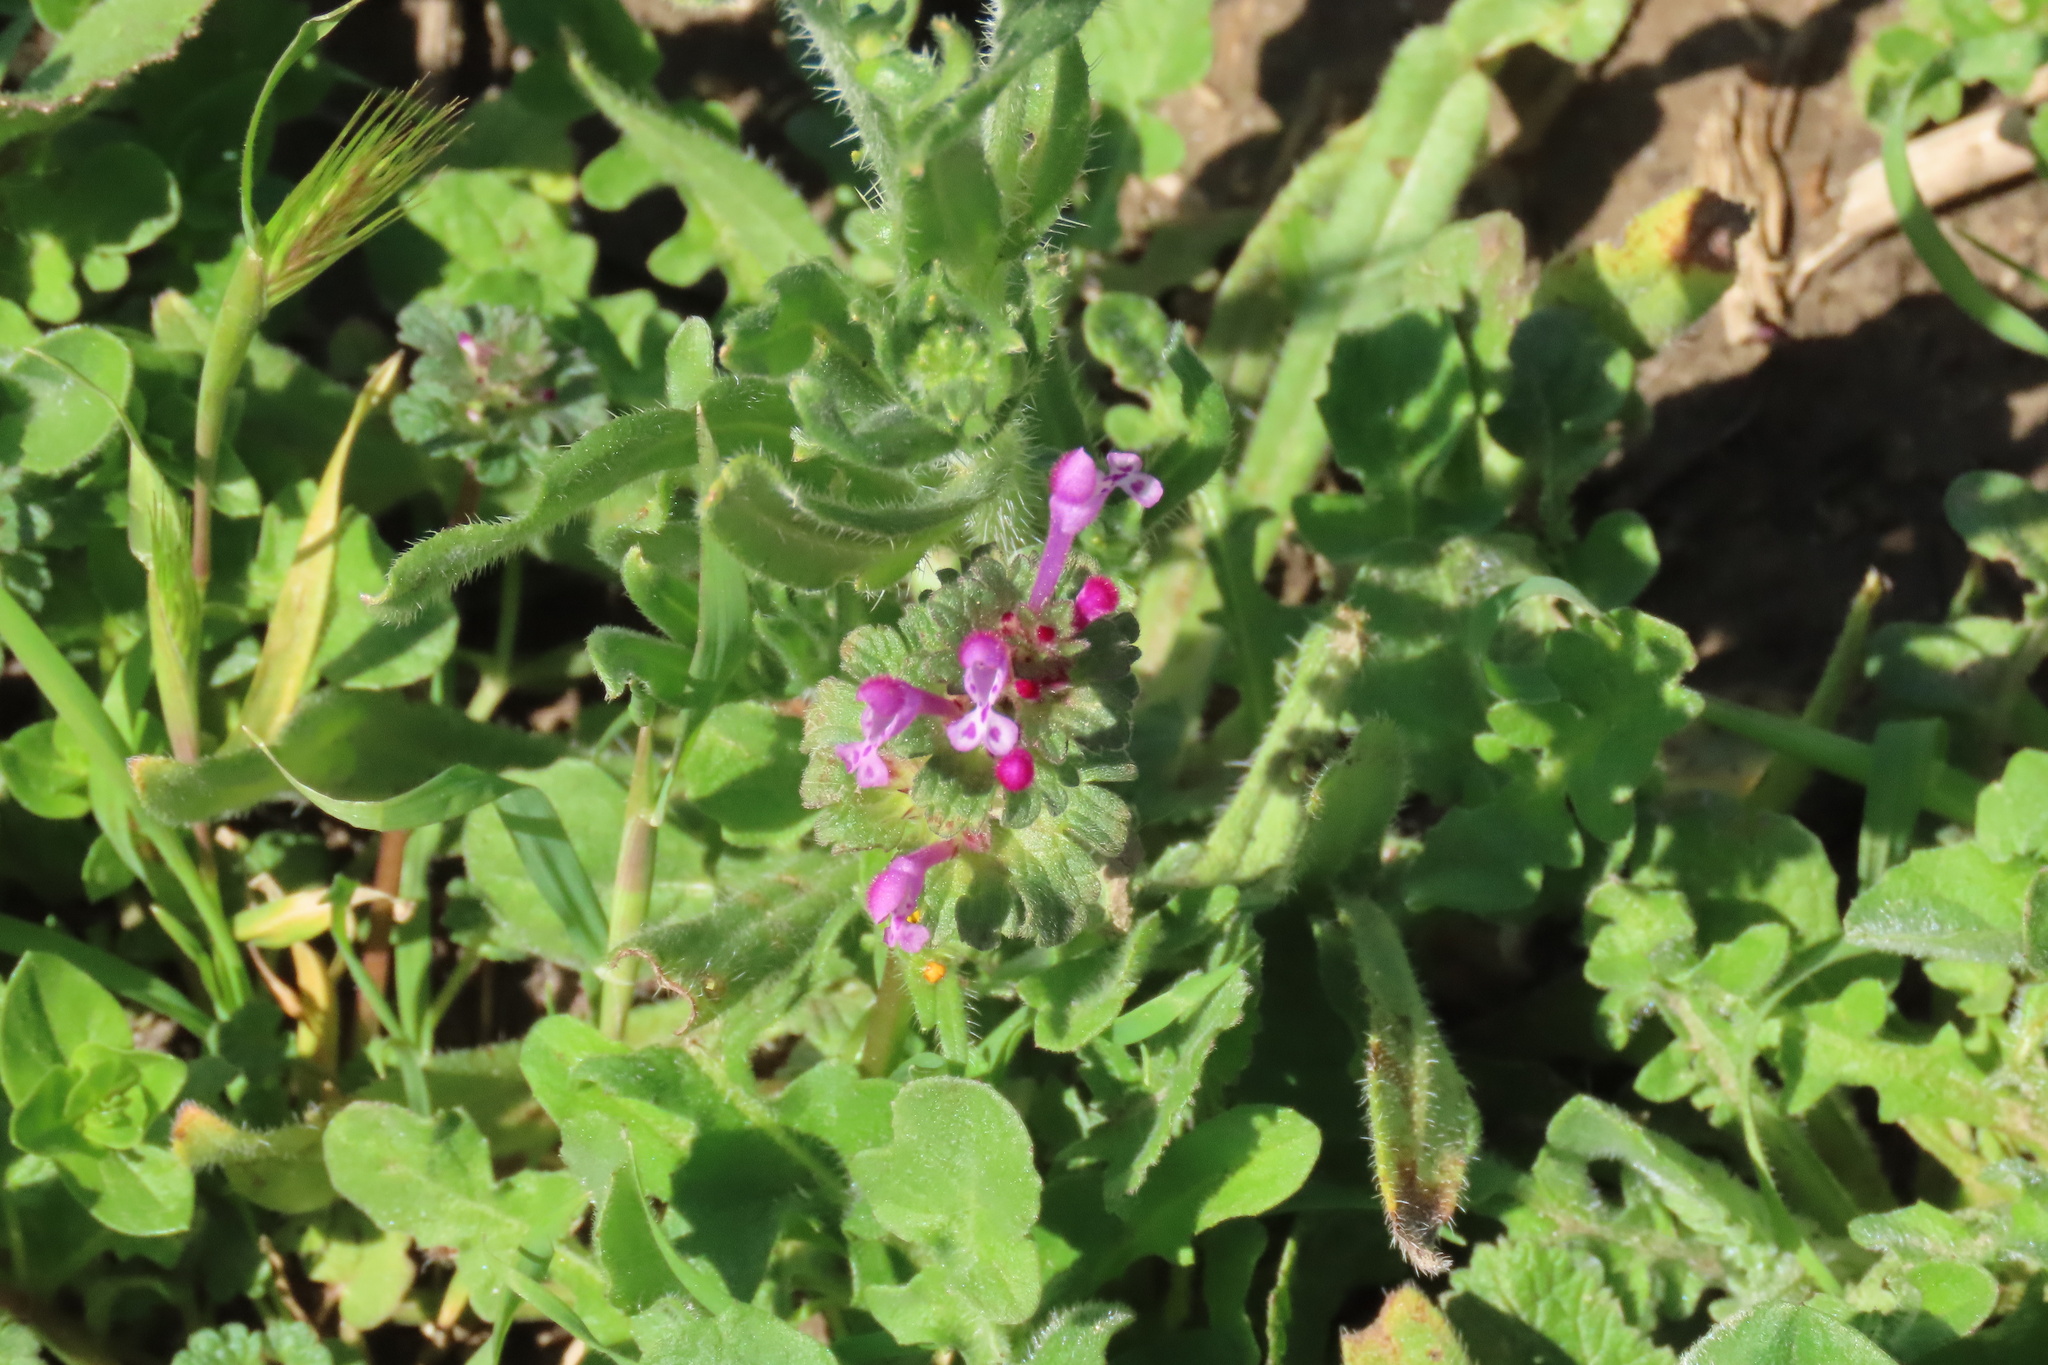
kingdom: Plantae
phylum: Tracheophyta
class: Magnoliopsida
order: Lamiales
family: Lamiaceae
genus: Lamium
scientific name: Lamium amplexicaule
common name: Henbit dead-nettle
